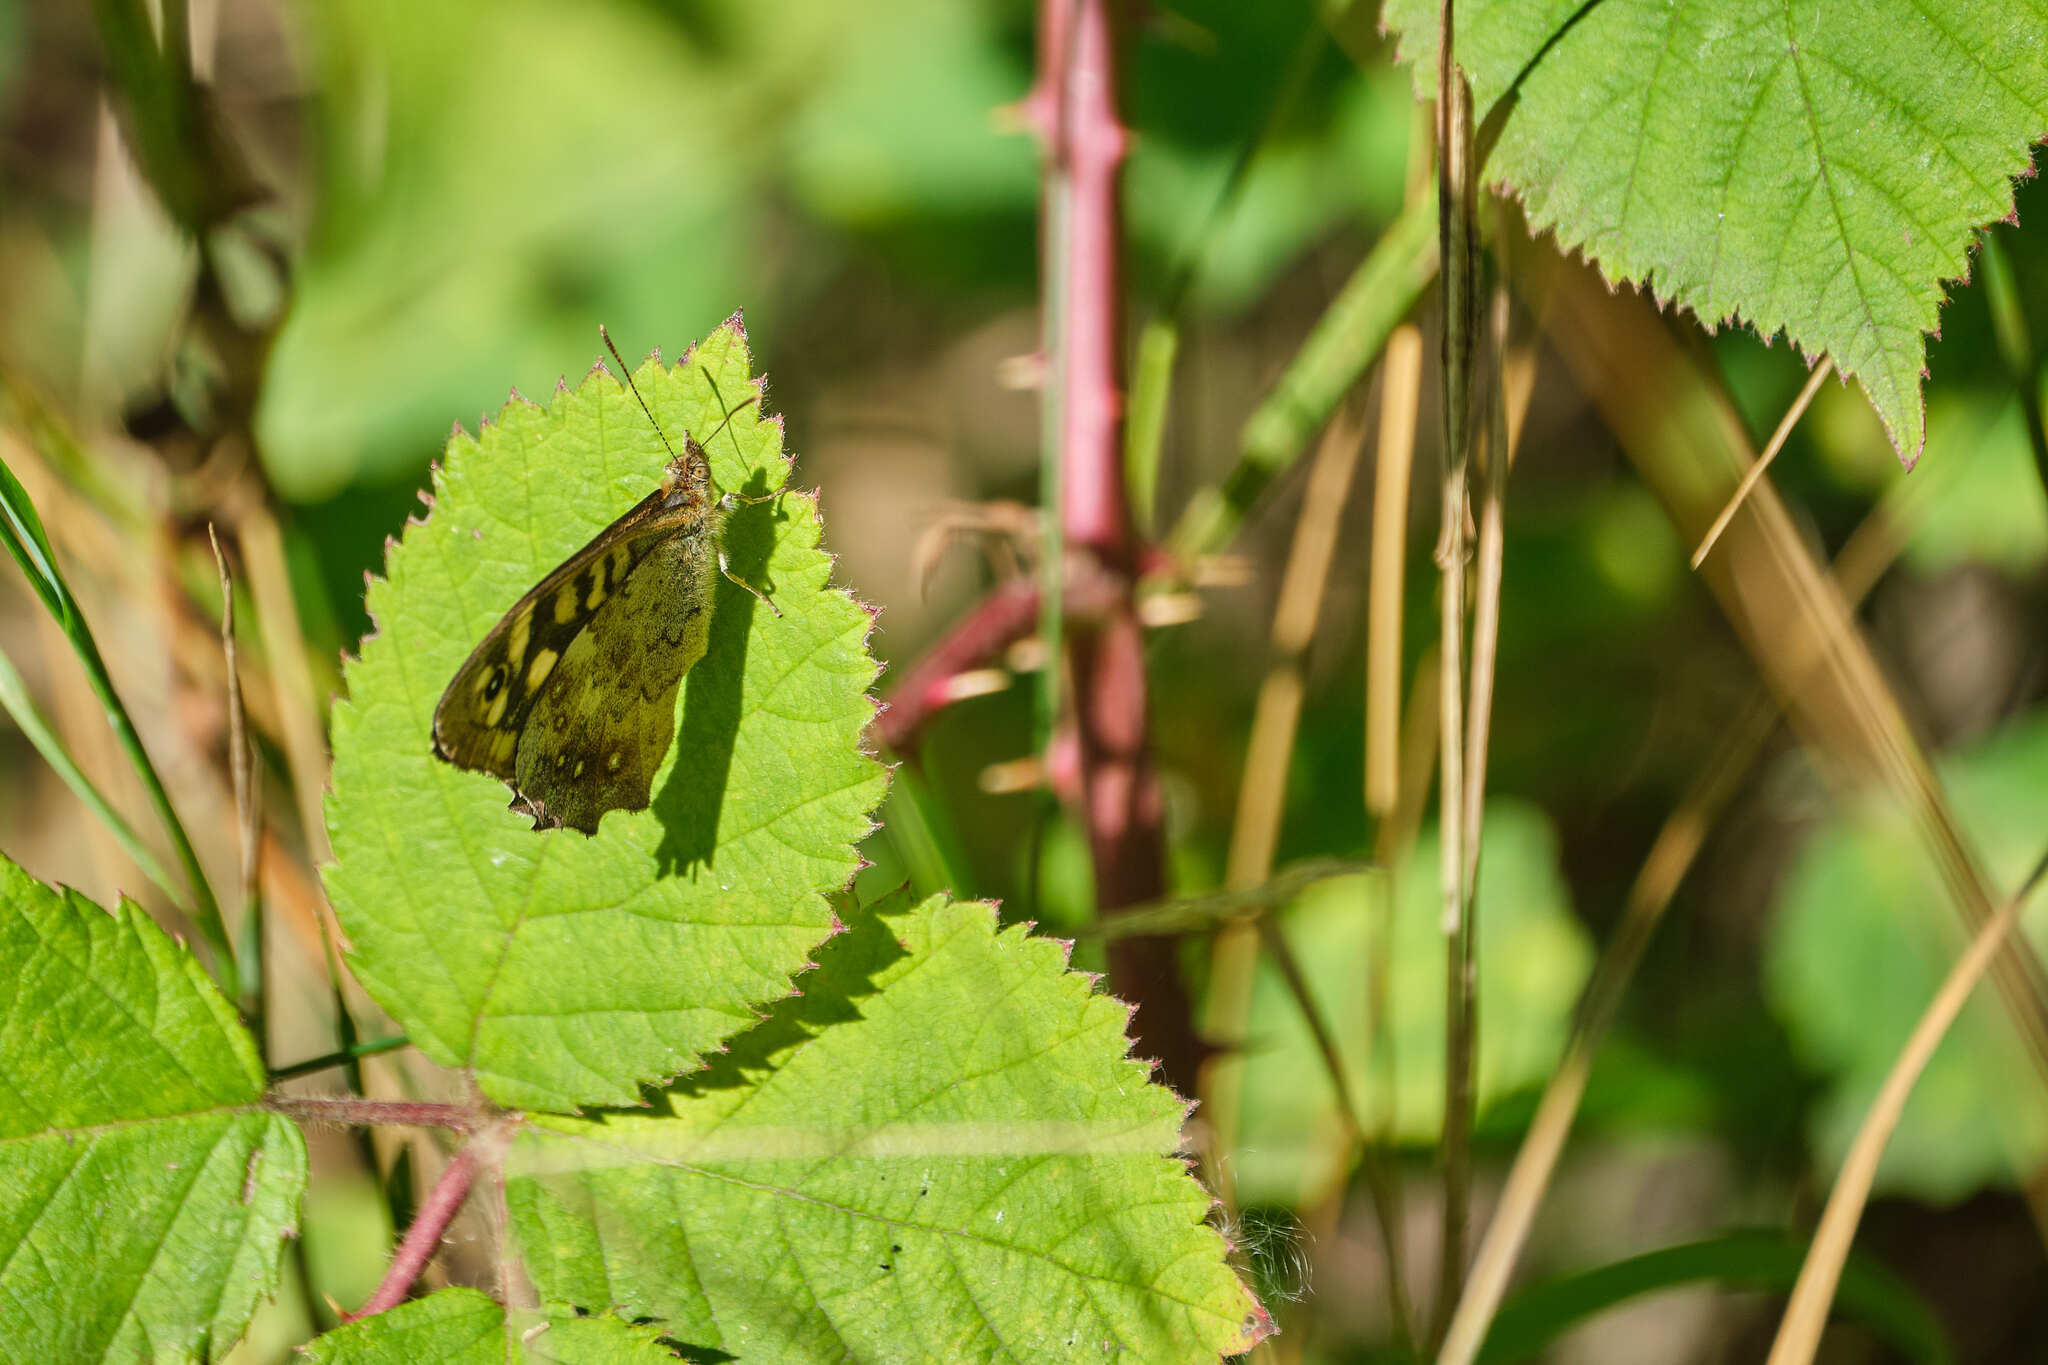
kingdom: Animalia
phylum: Arthropoda
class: Insecta
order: Lepidoptera
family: Nymphalidae
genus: Pararge
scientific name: Pararge aegeria
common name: Speckled wood
